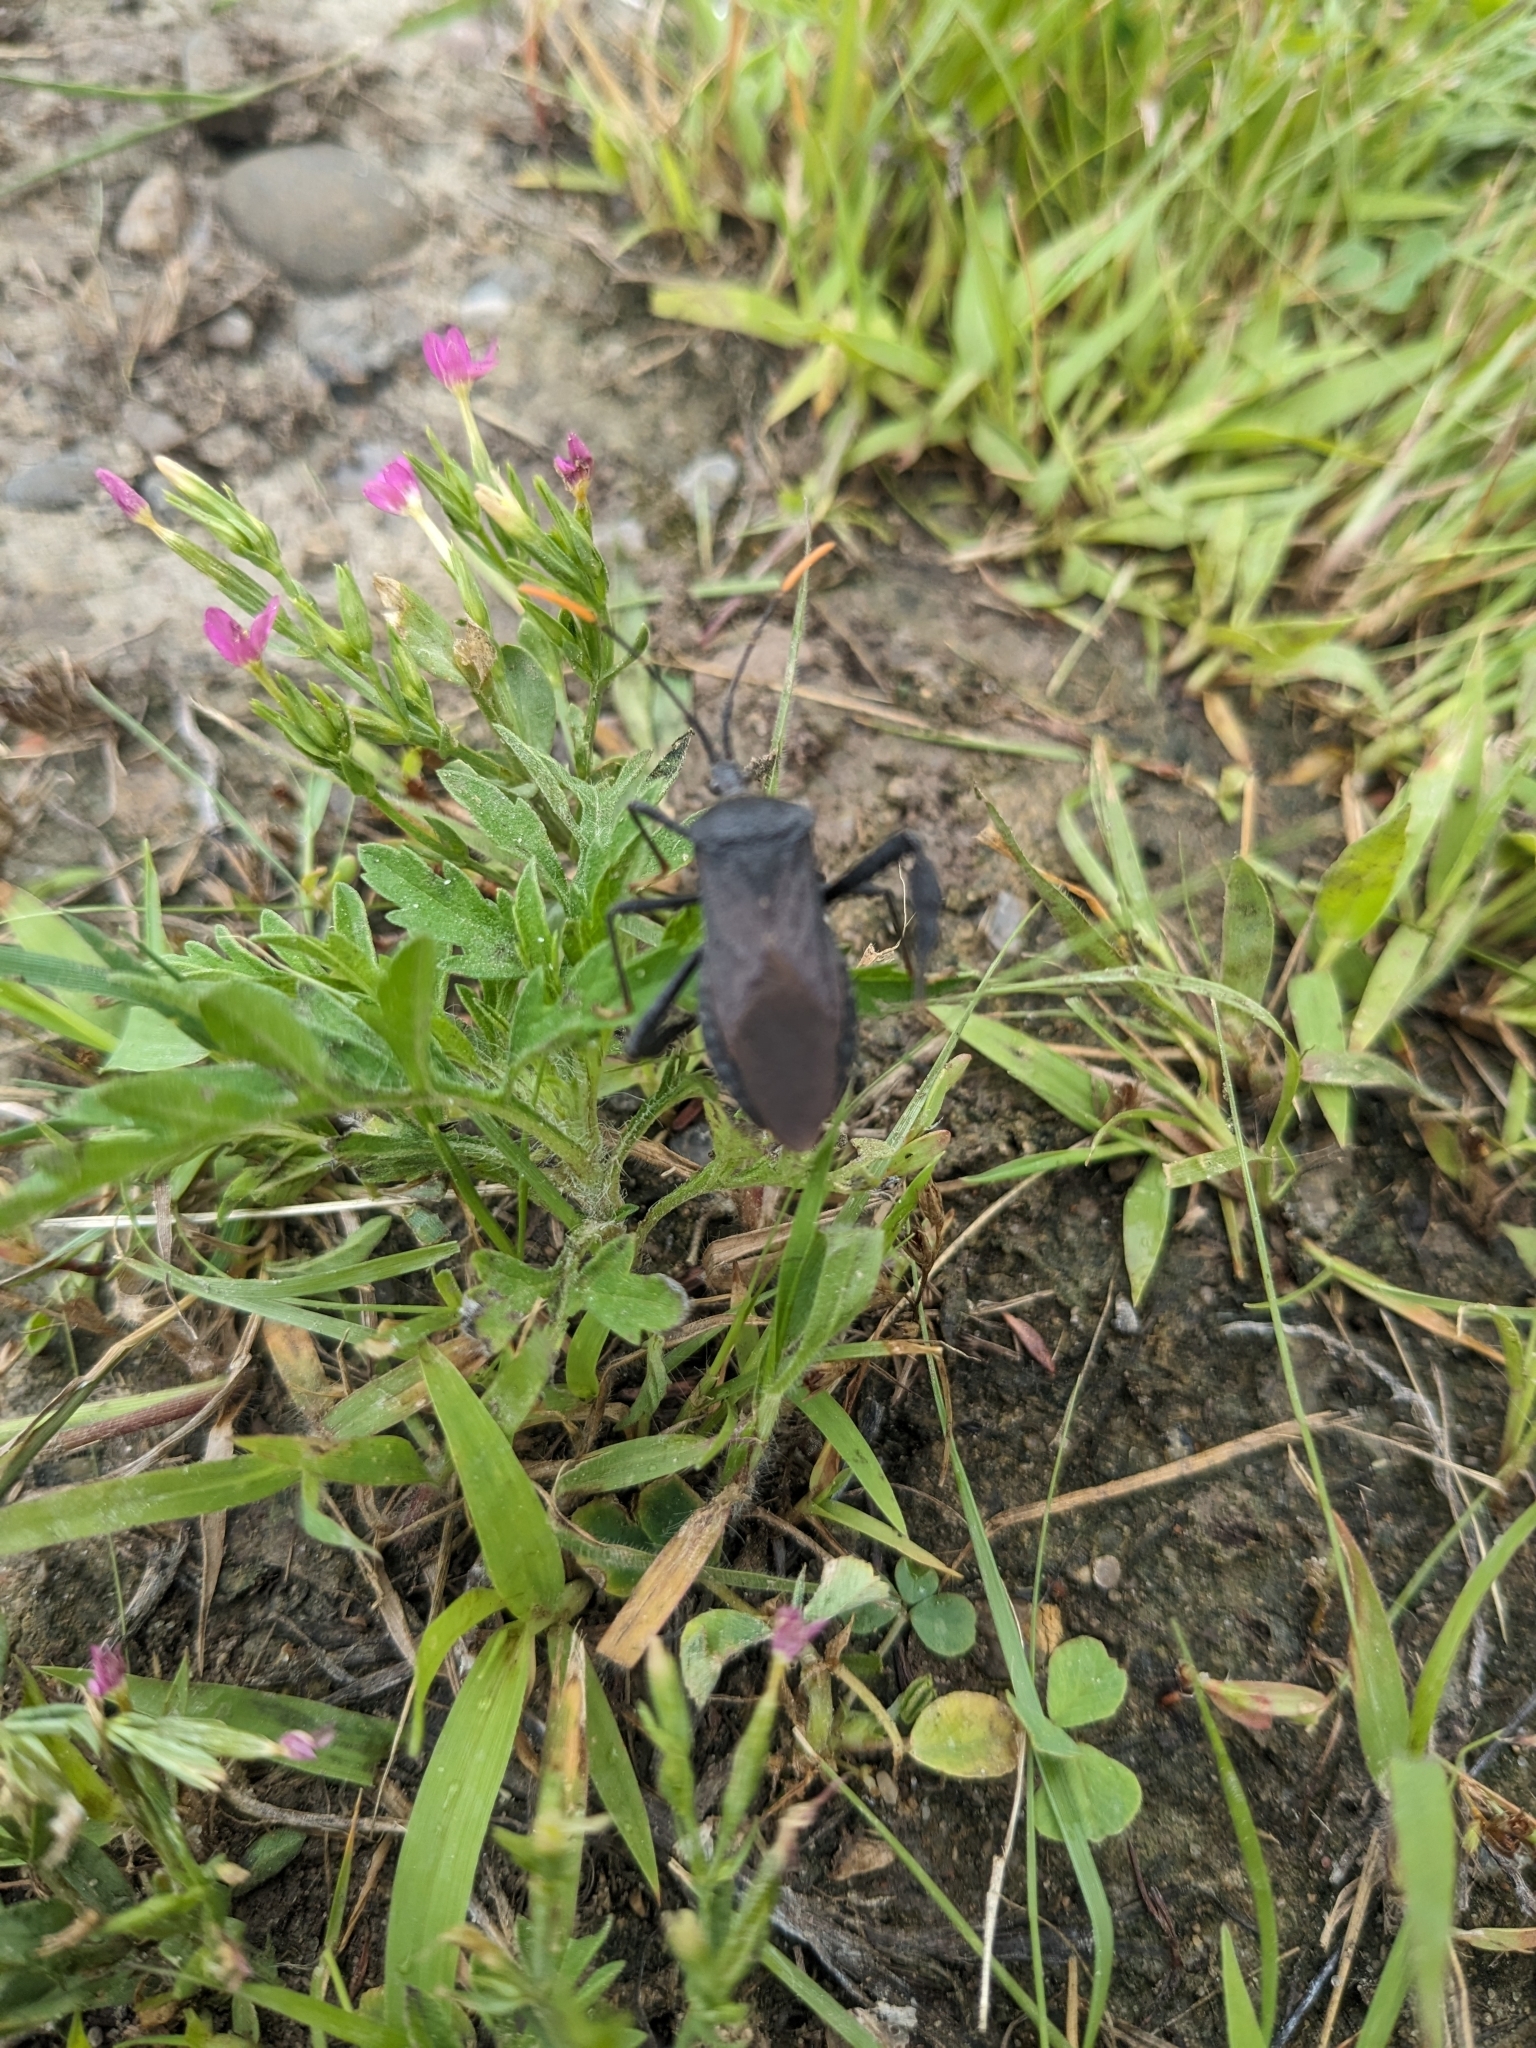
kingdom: Animalia
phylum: Arthropoda
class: Insecta
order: Hemiptera
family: Coreidae
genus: Acanthocephala
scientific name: Acanthocephala terminalis
